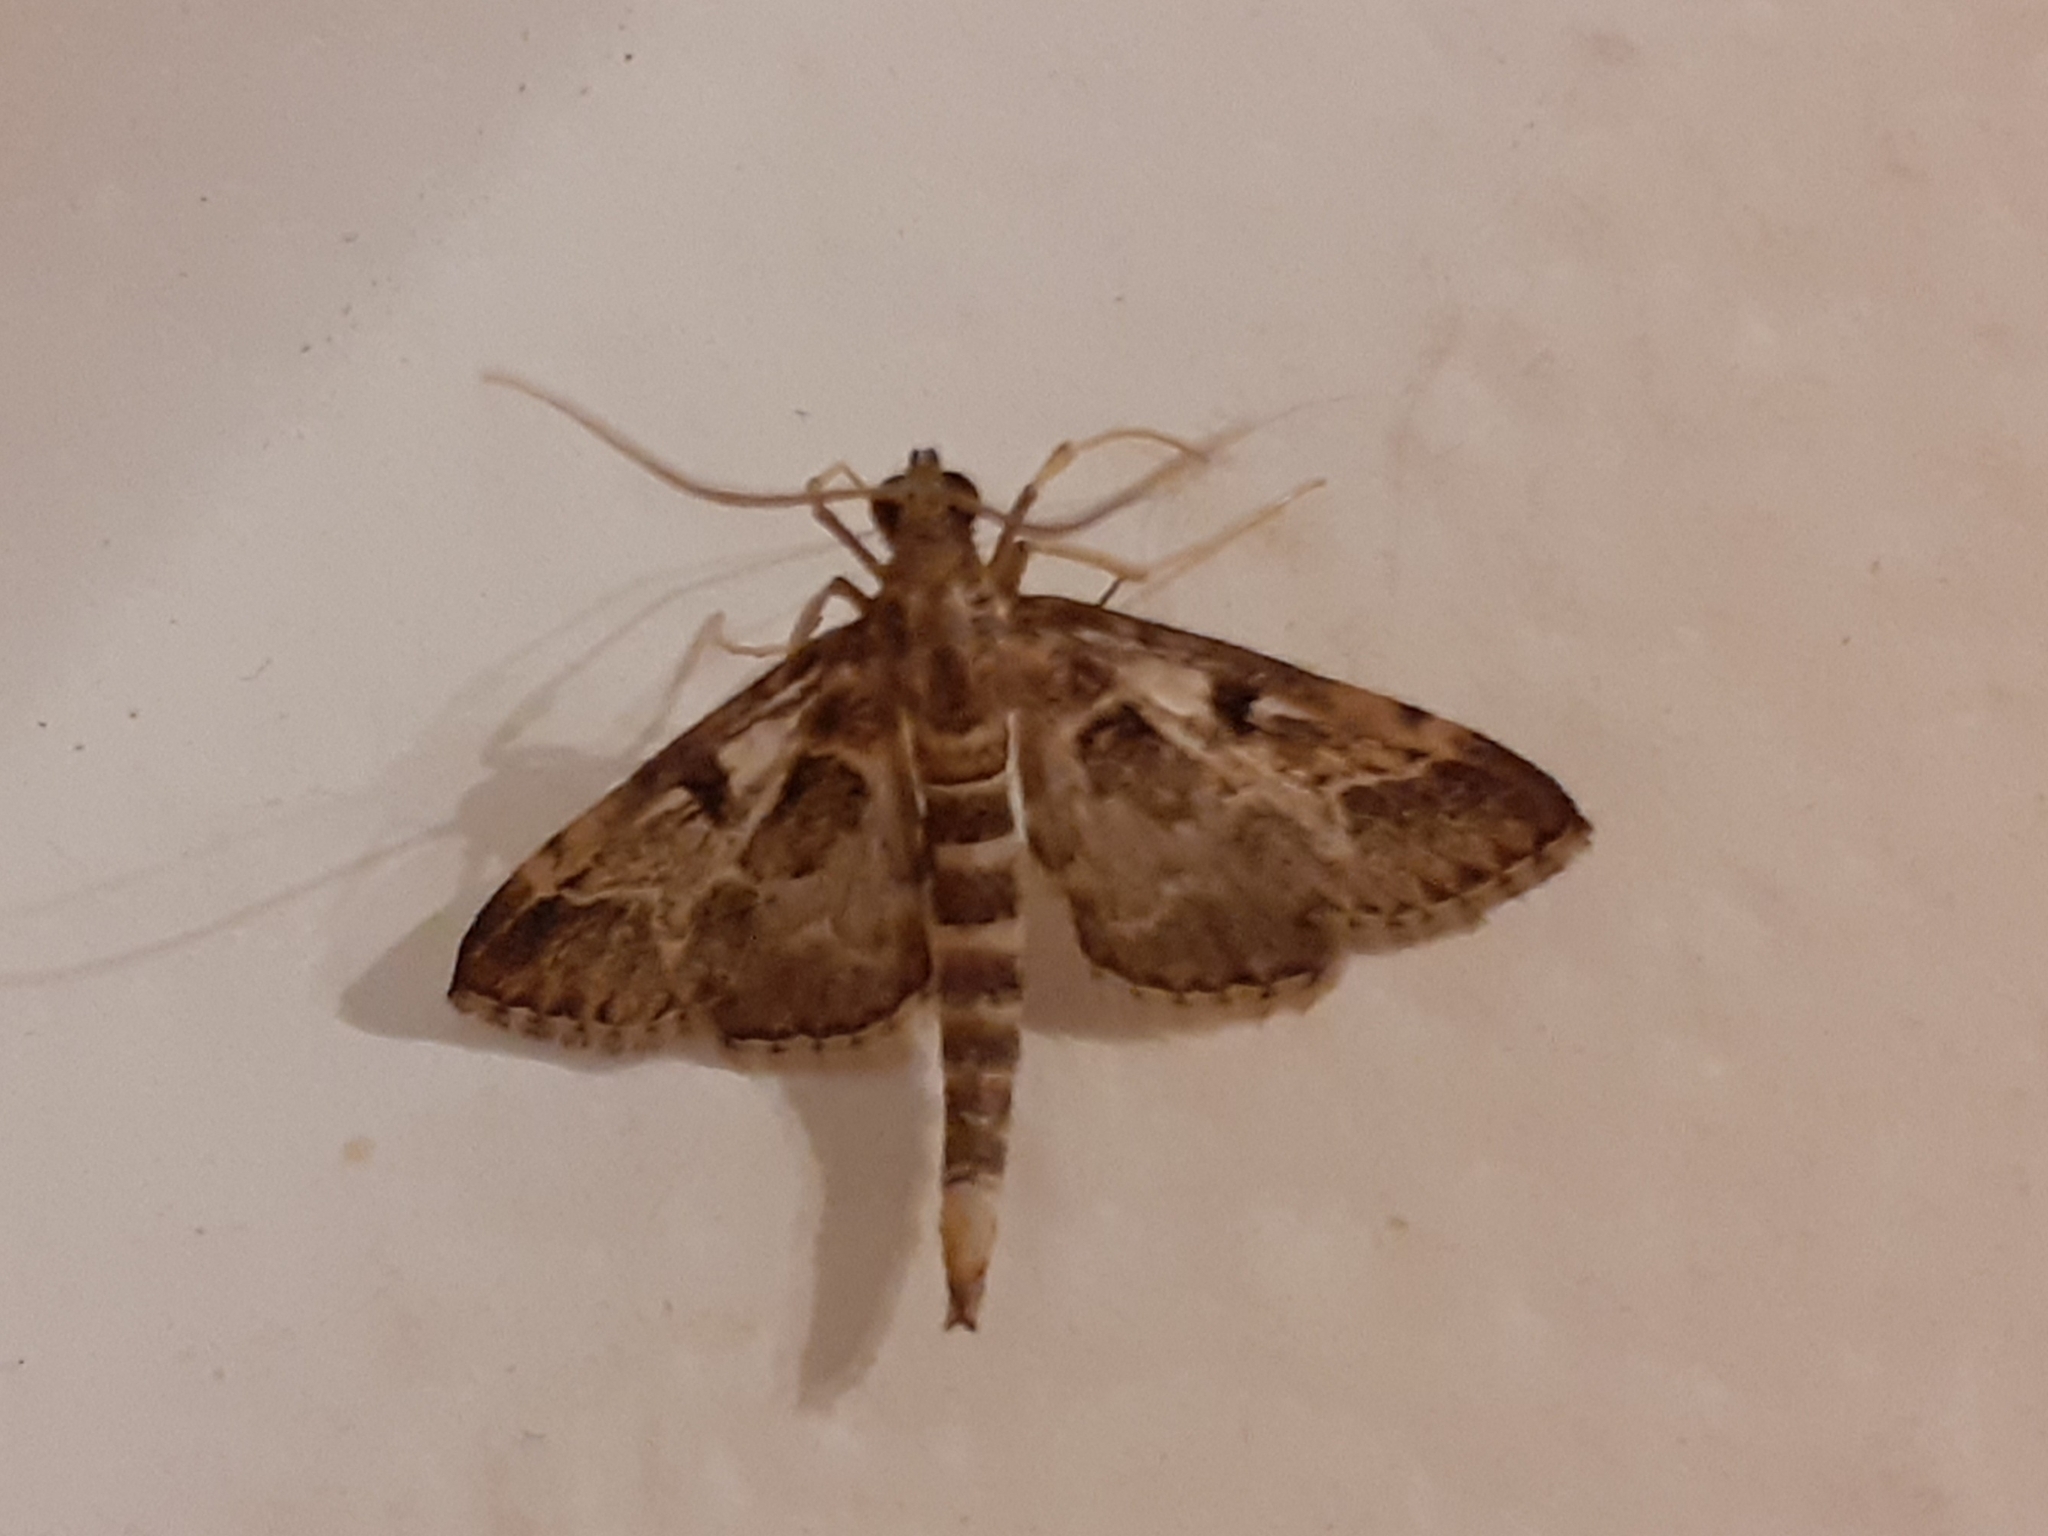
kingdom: Animalia
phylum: Arthropoda
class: Insecta
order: Lepidoptera
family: Crambidae
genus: Duponchelia
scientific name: Duponchelia fovealis
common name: Crambid moth
